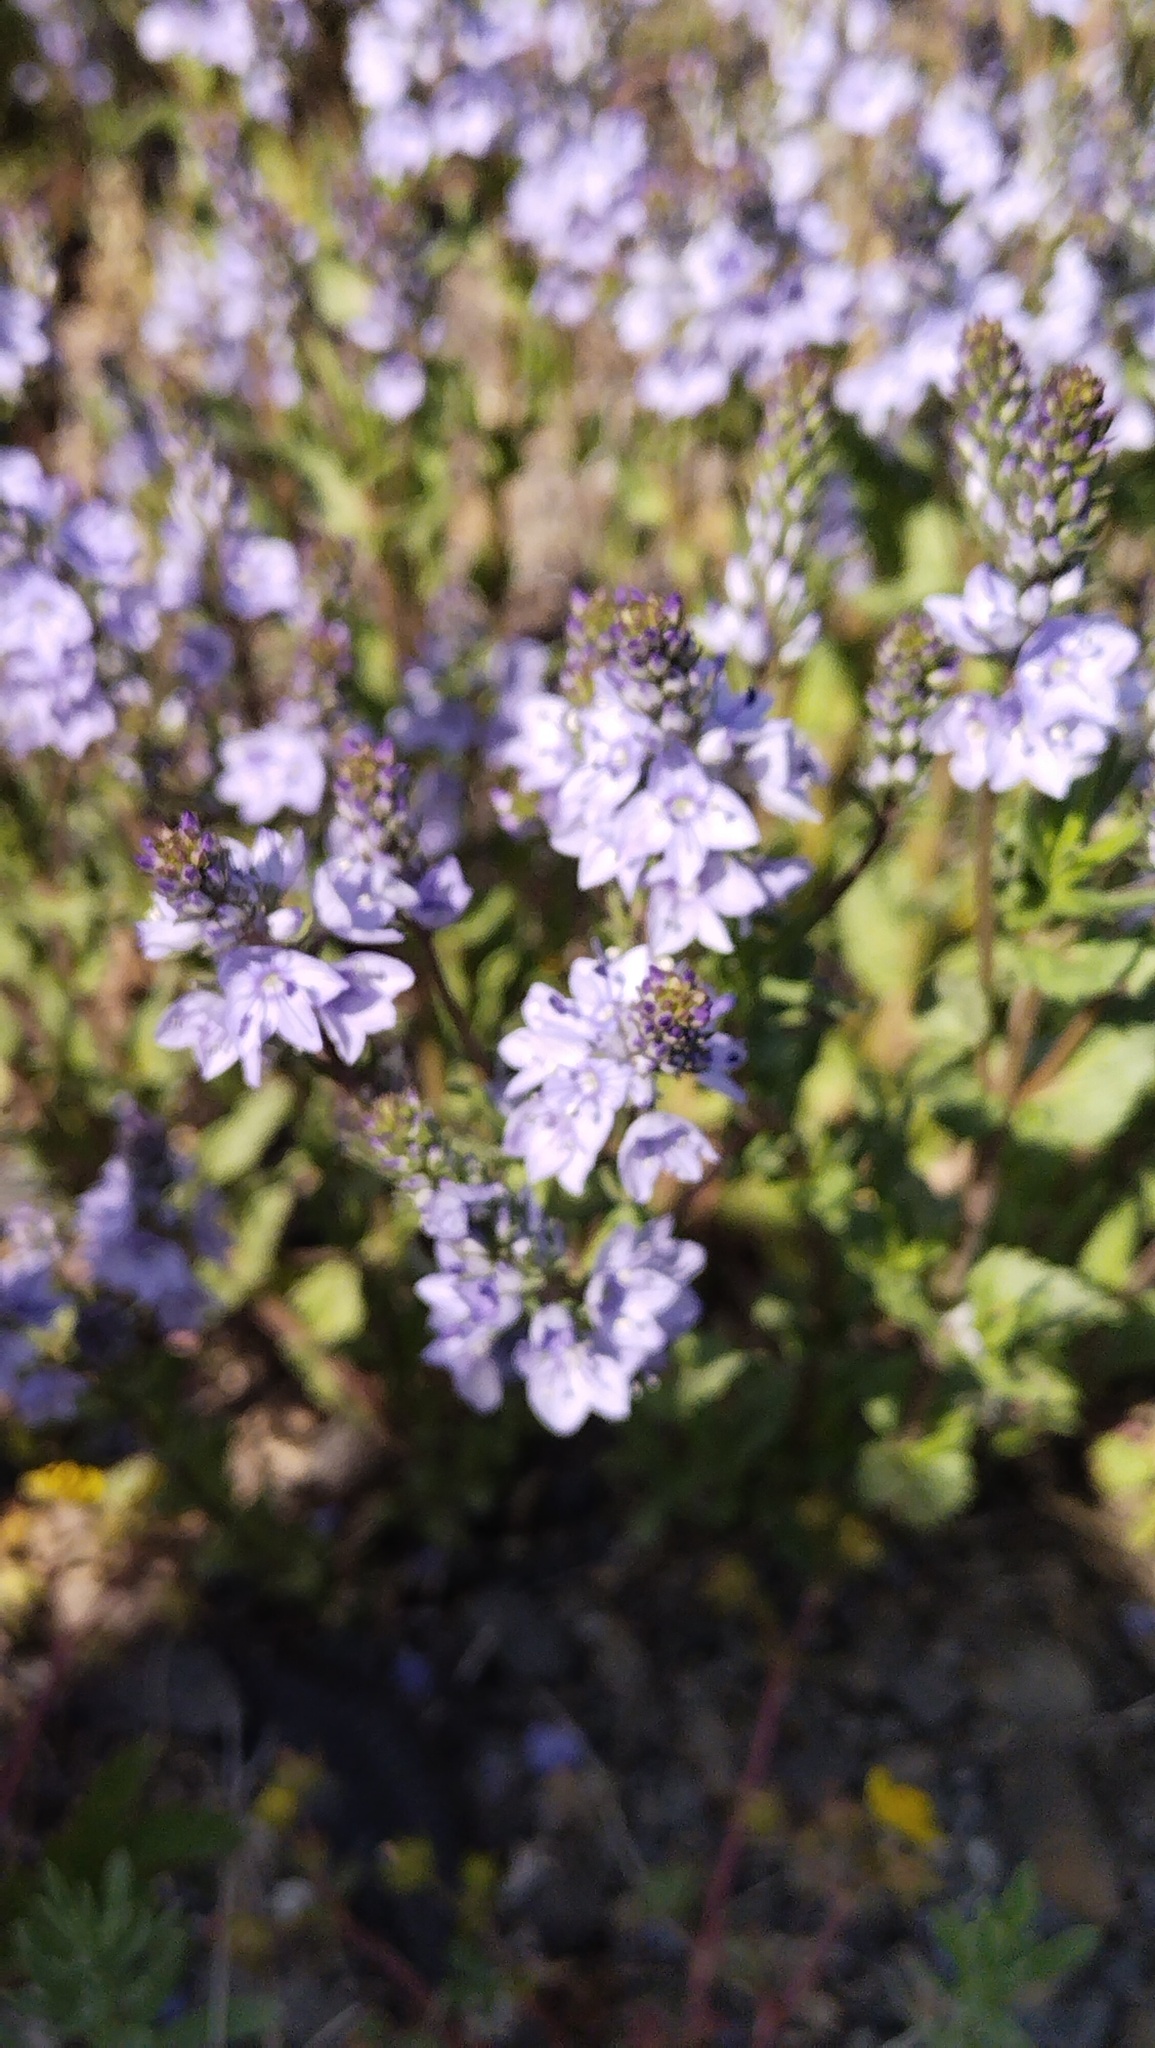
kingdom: Plantae
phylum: Tracheophyta
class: Magnoliopsida
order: Lamiales
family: Plantaginaceae
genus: Veronica
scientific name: Veronica prostrata
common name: Prostrate speedwell
